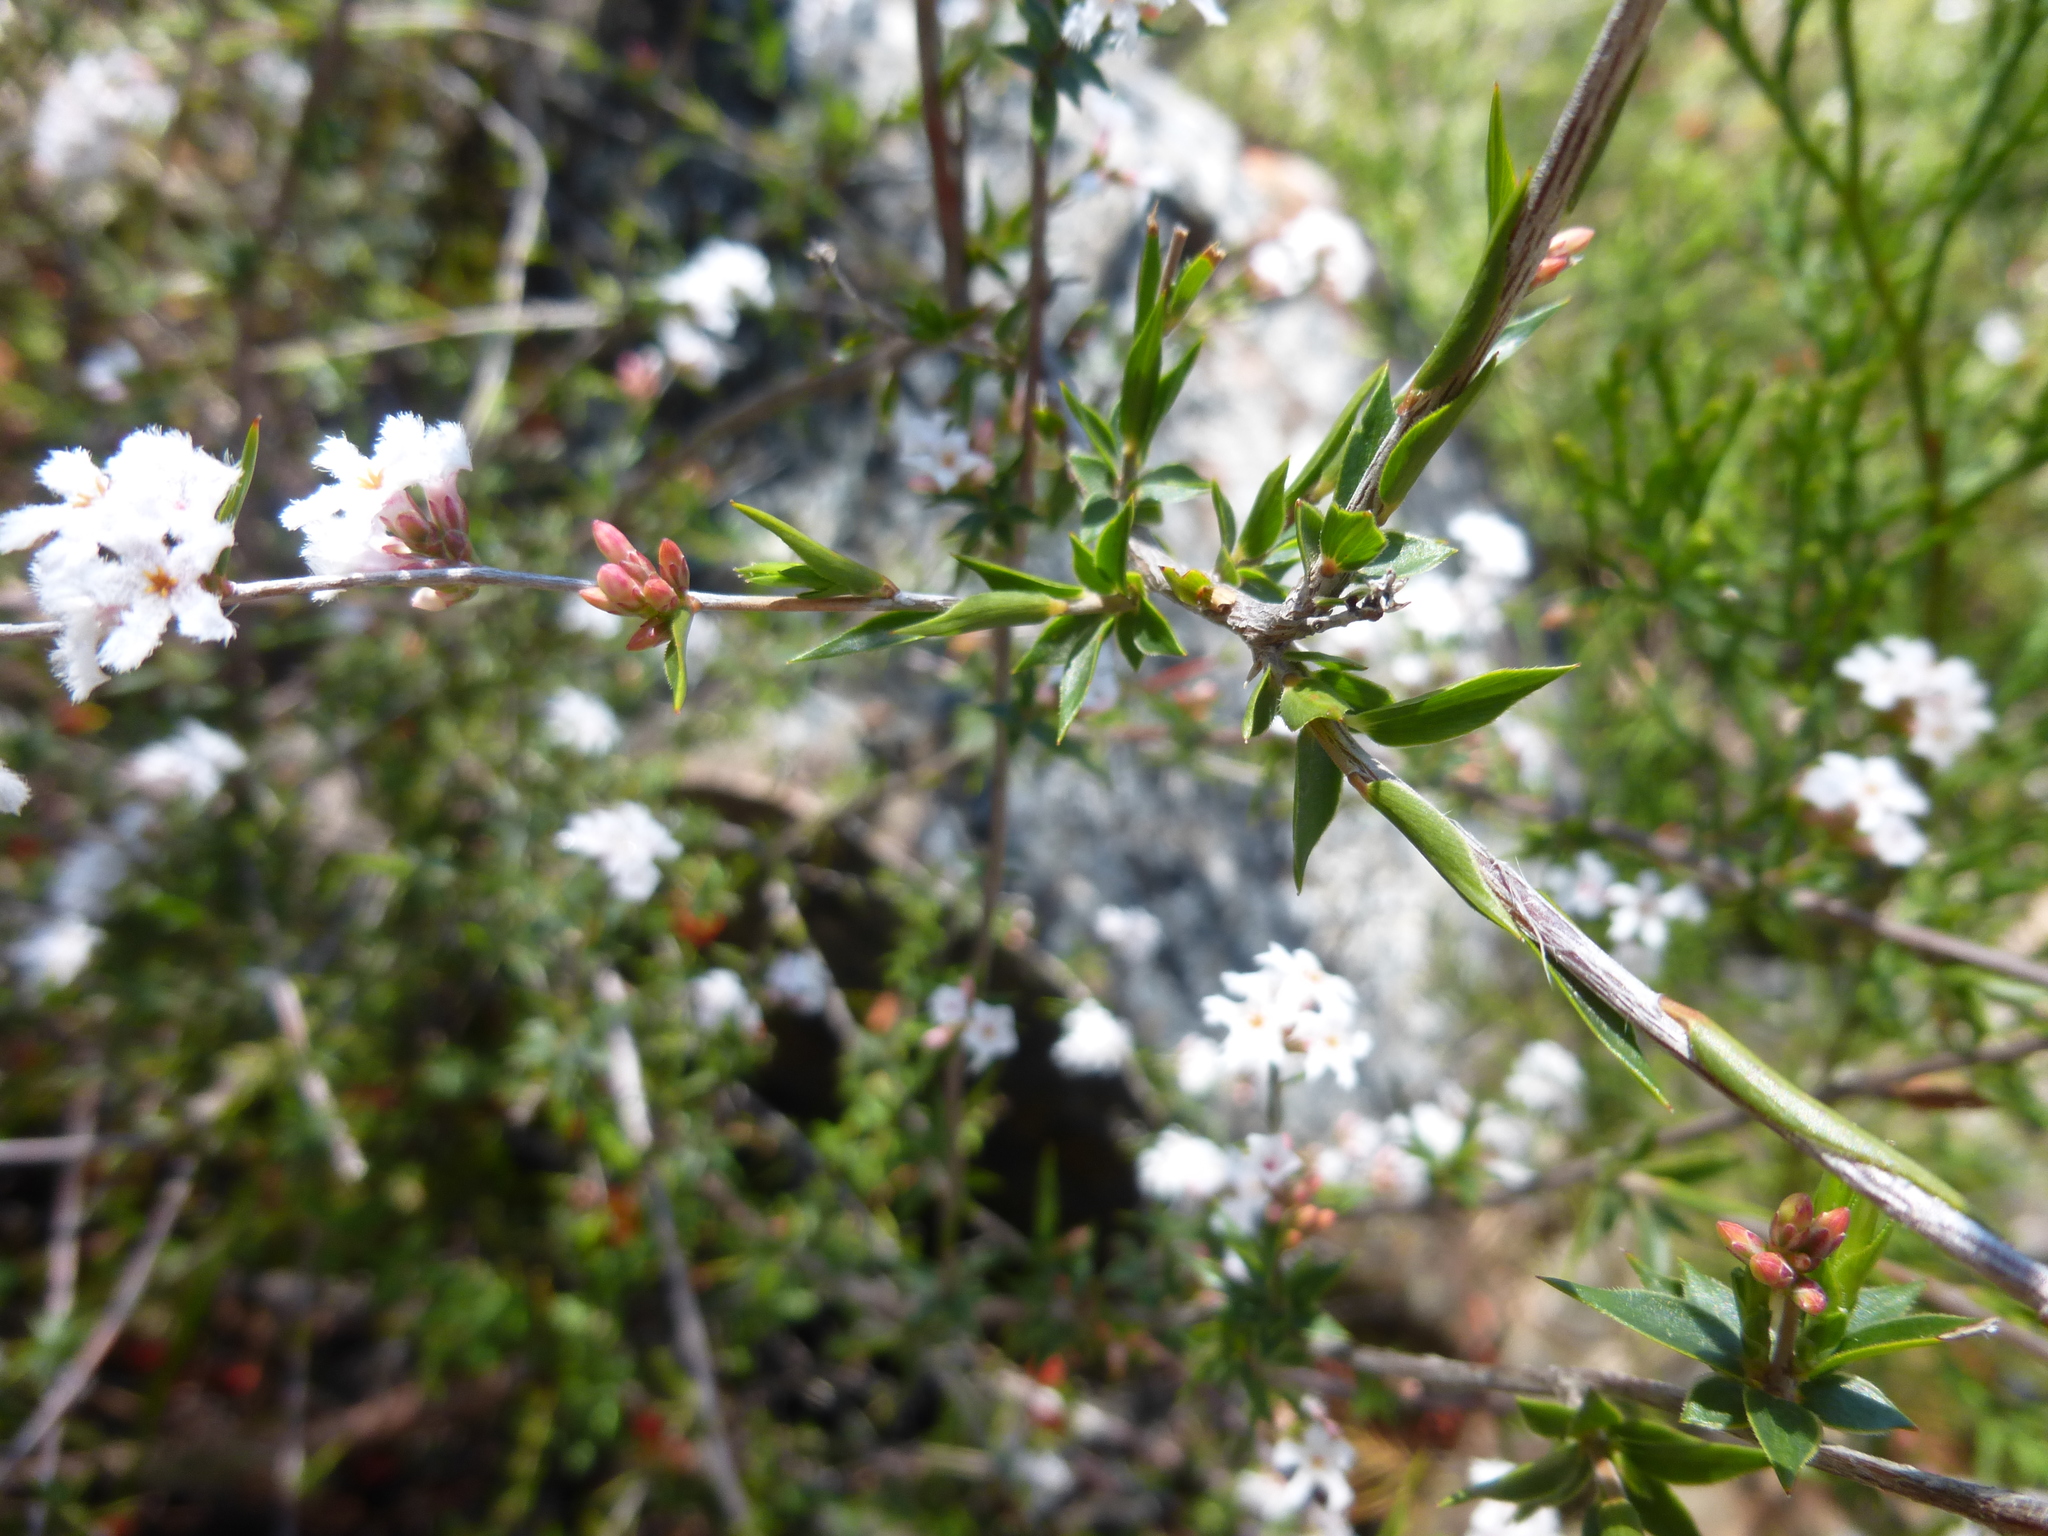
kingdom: Plantae
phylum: Tracheophyta
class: Magnoliopsida
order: Ericales
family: Ericaceae
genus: Leucopogon
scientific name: Leucopogon virgatus
